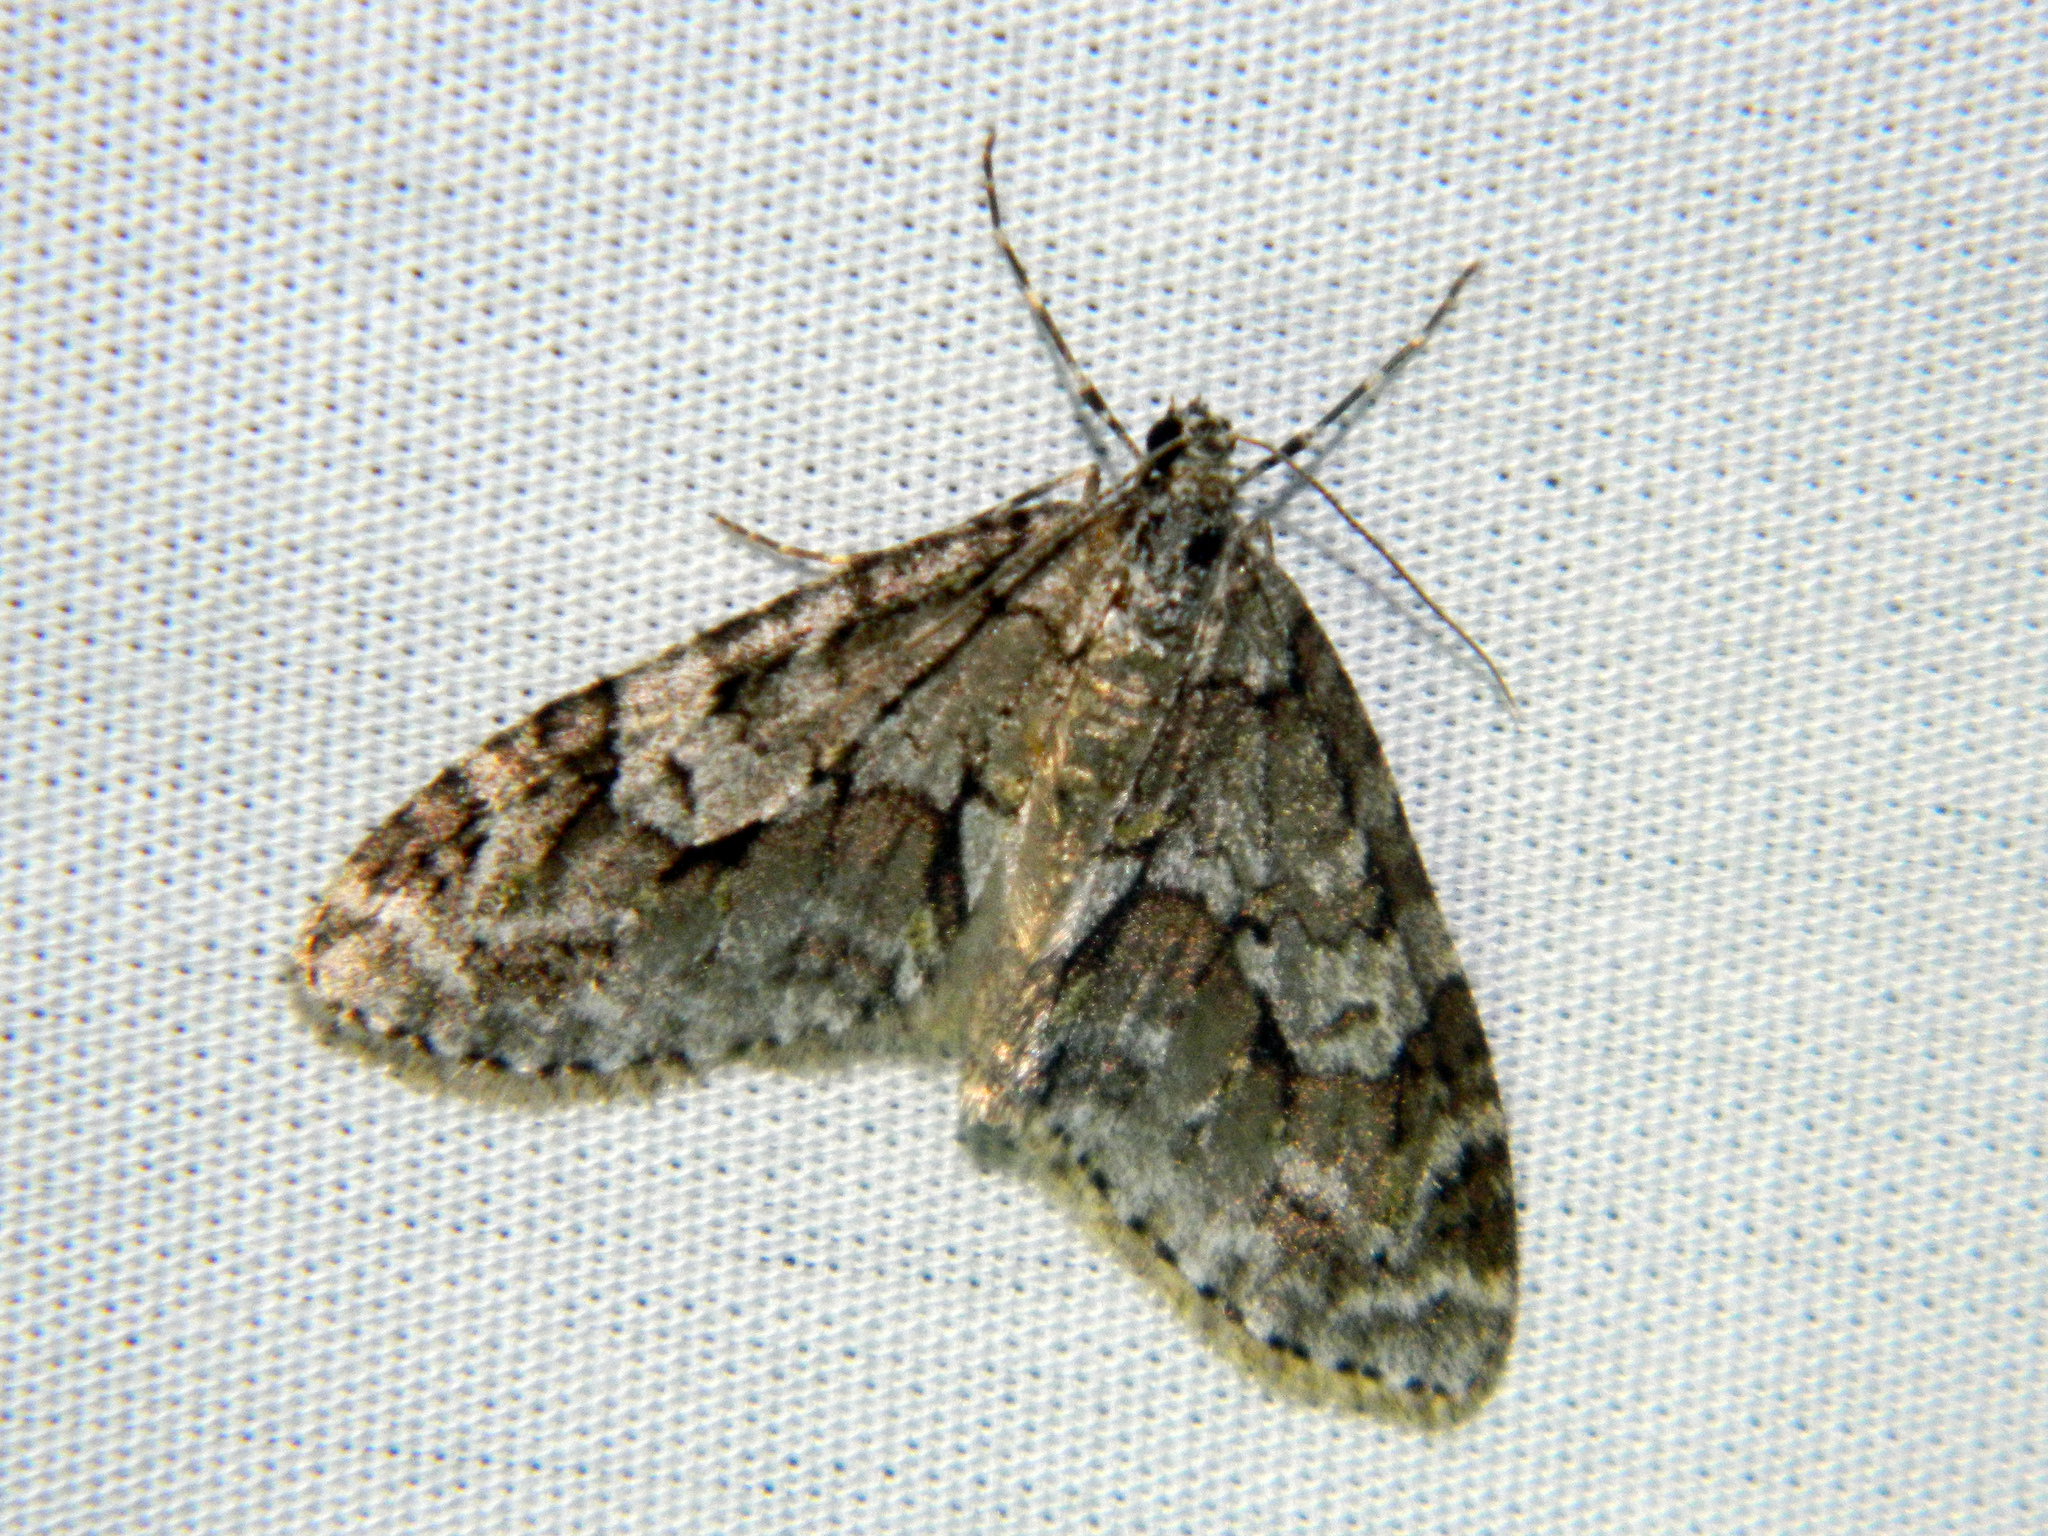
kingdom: Animalia
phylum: Arthropoda
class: Insecta
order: Lepidoptera
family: Geometridae
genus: Cladara
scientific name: Cladara limitaria
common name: Mottled gray carpet
